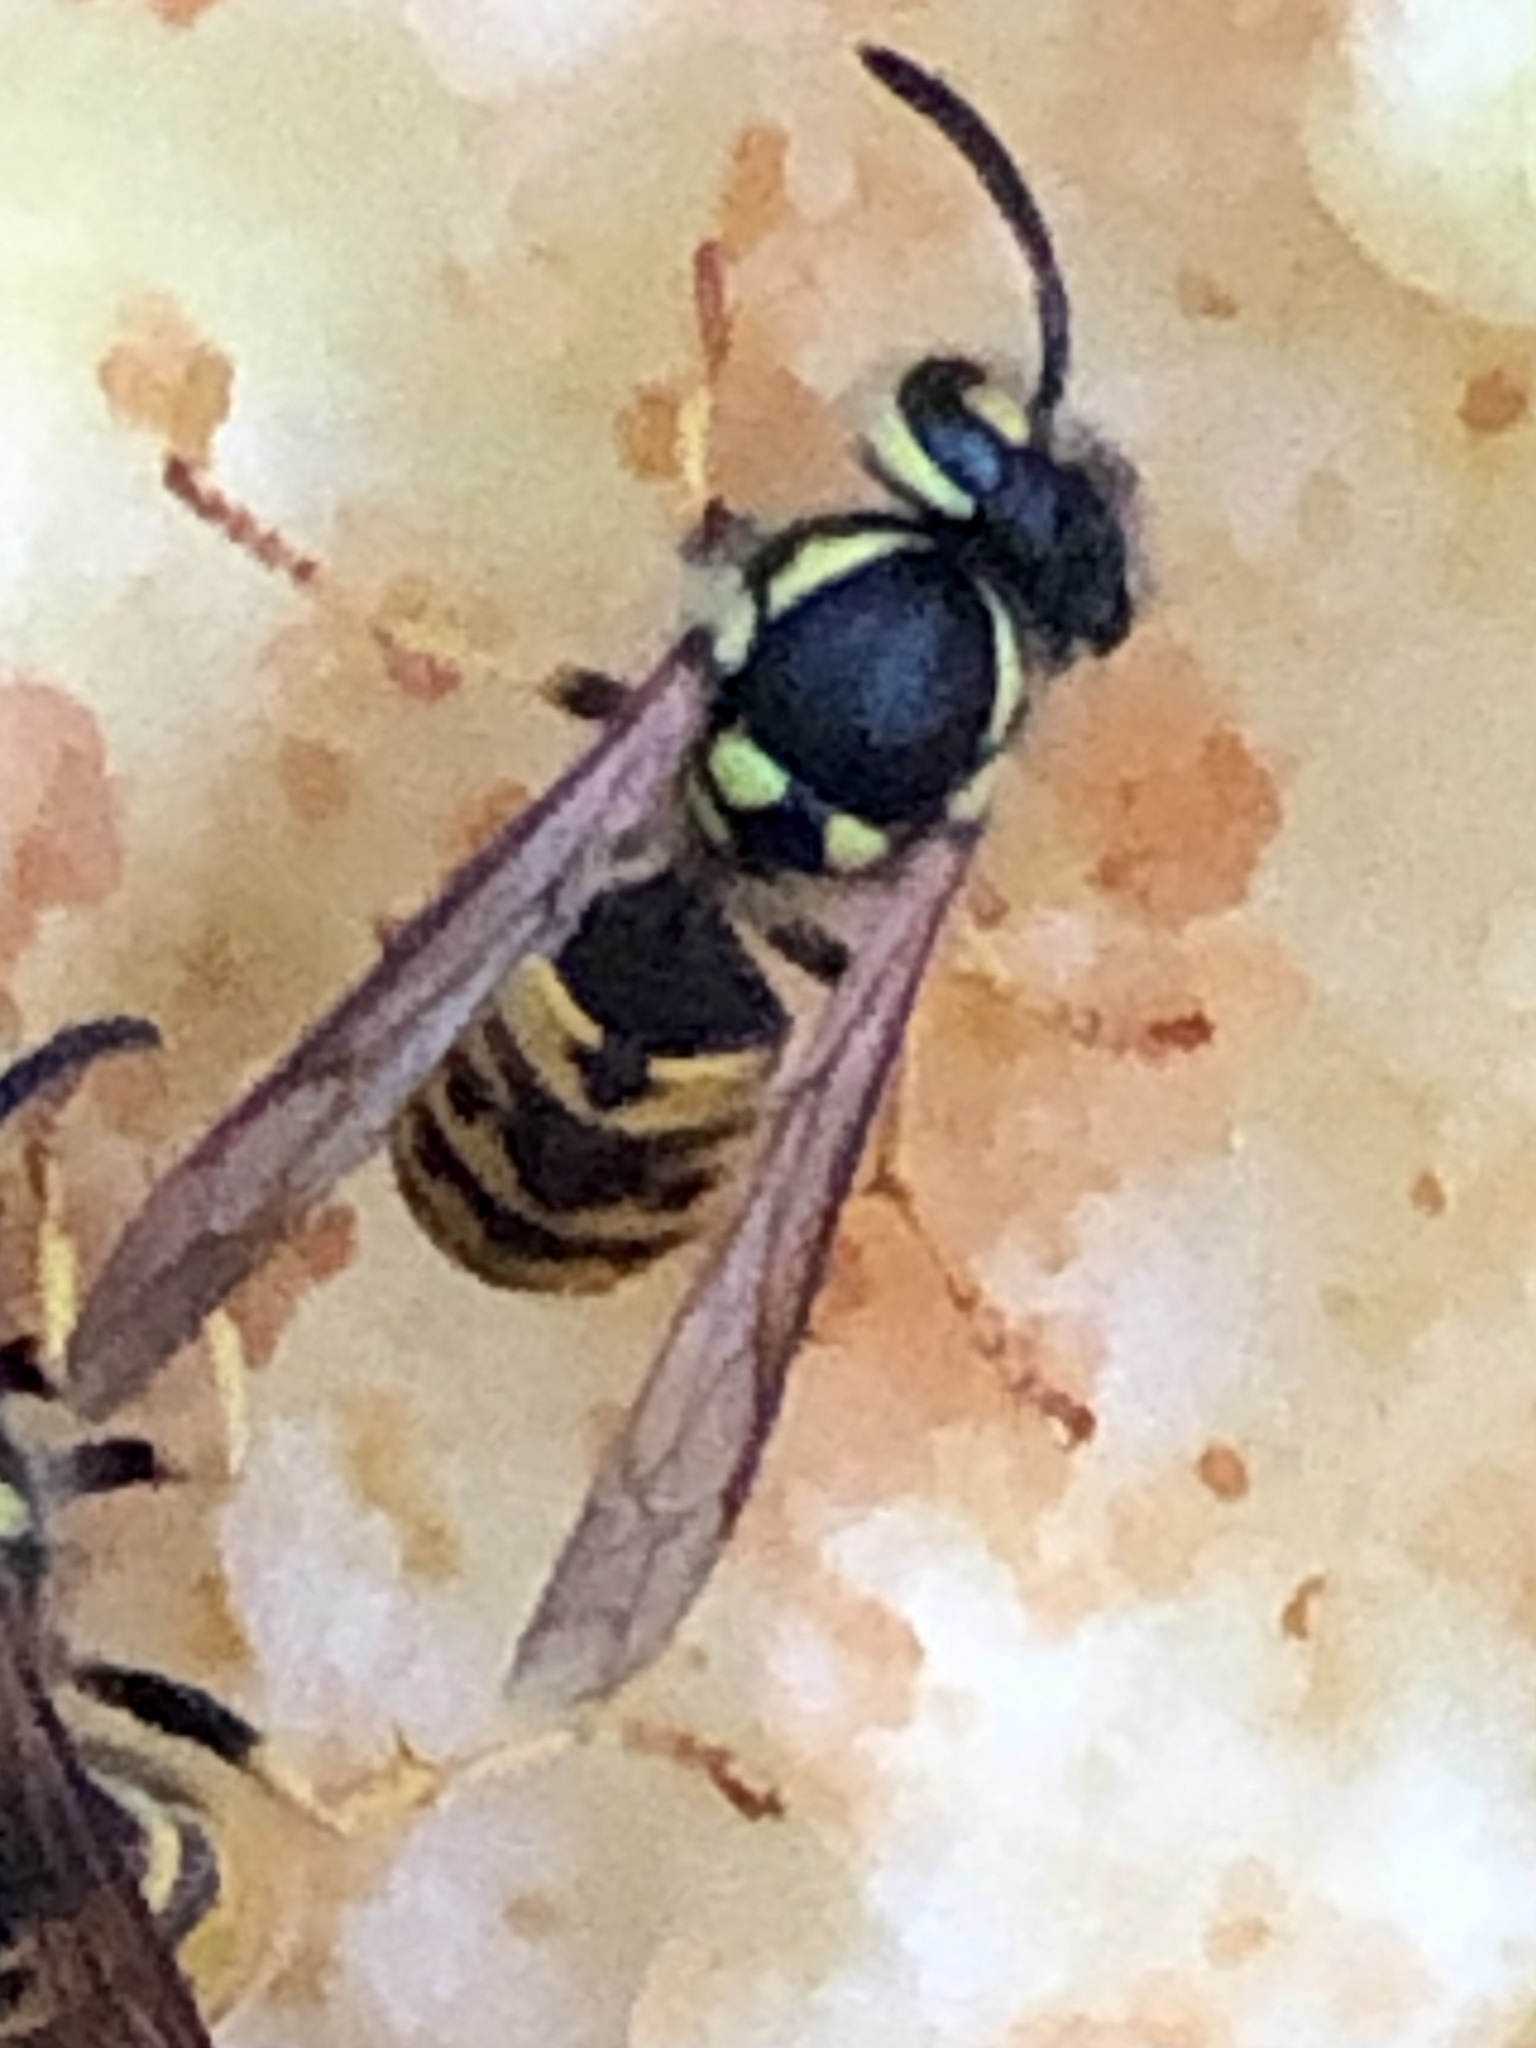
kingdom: Animalia
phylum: Arthropoda
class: Insecta
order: Hymenoptera
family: Vespidae
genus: Vespula
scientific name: Vespula germanica
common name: German wasp
